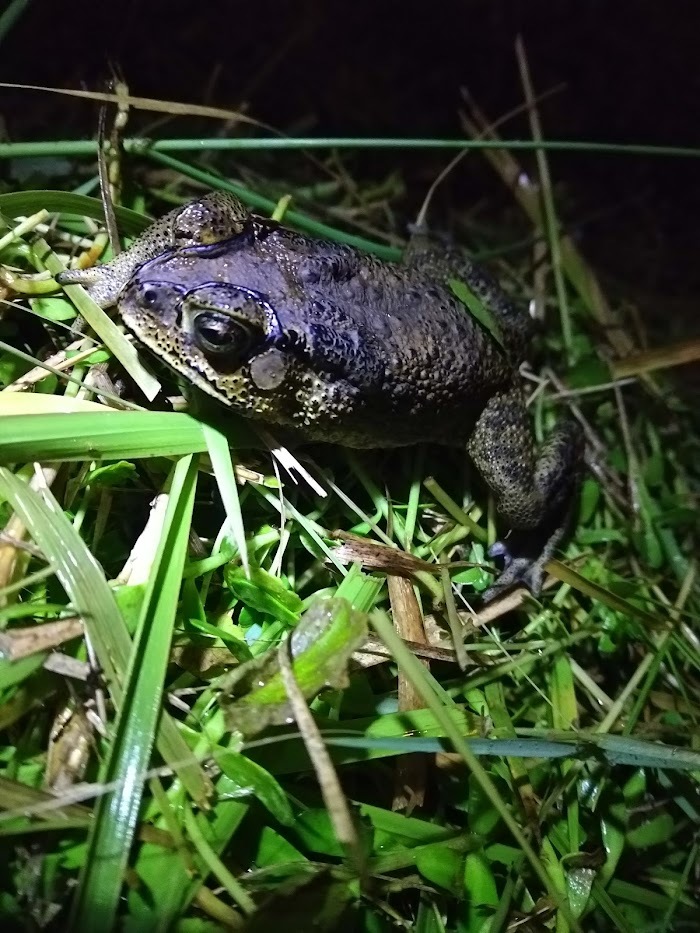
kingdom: Animalia
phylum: Chordata
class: Amphibia
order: Anura
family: Bufonidae
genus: Duttaphrynus
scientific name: Duttaphrynus melanostictus
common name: Common sunda toad
